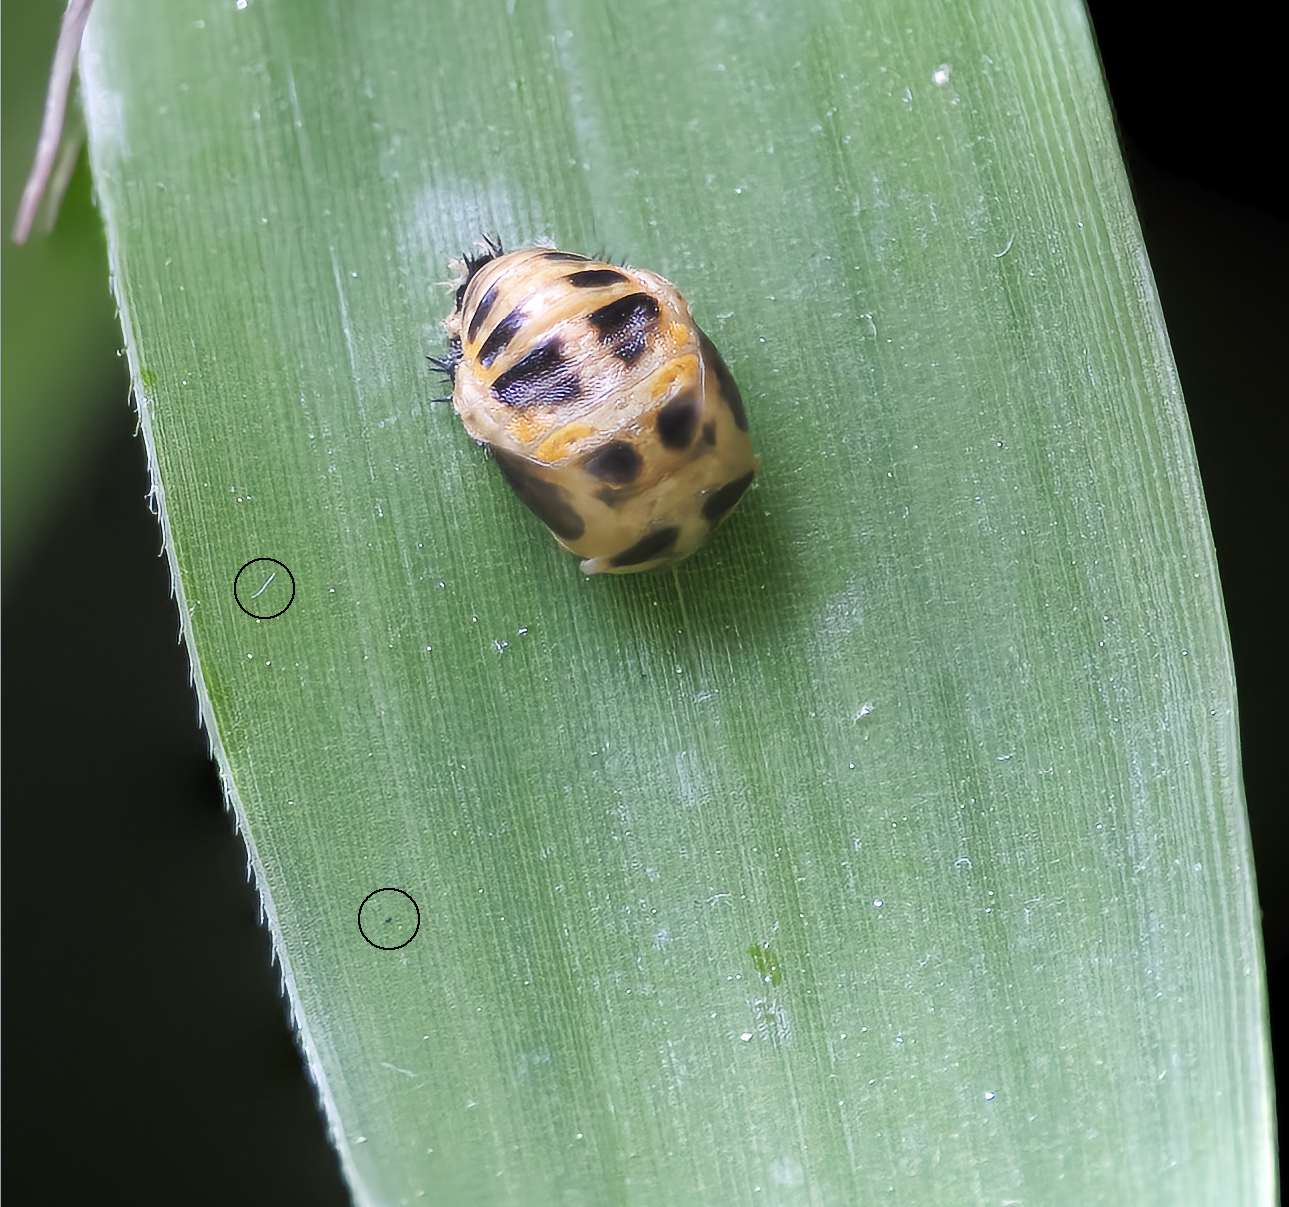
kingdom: Animalia
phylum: Arthropoda
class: Insecta
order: Coleoptera
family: Coccinellidae
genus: Harmonia
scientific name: Harmonia axyridis
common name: Harlequin ladybird
